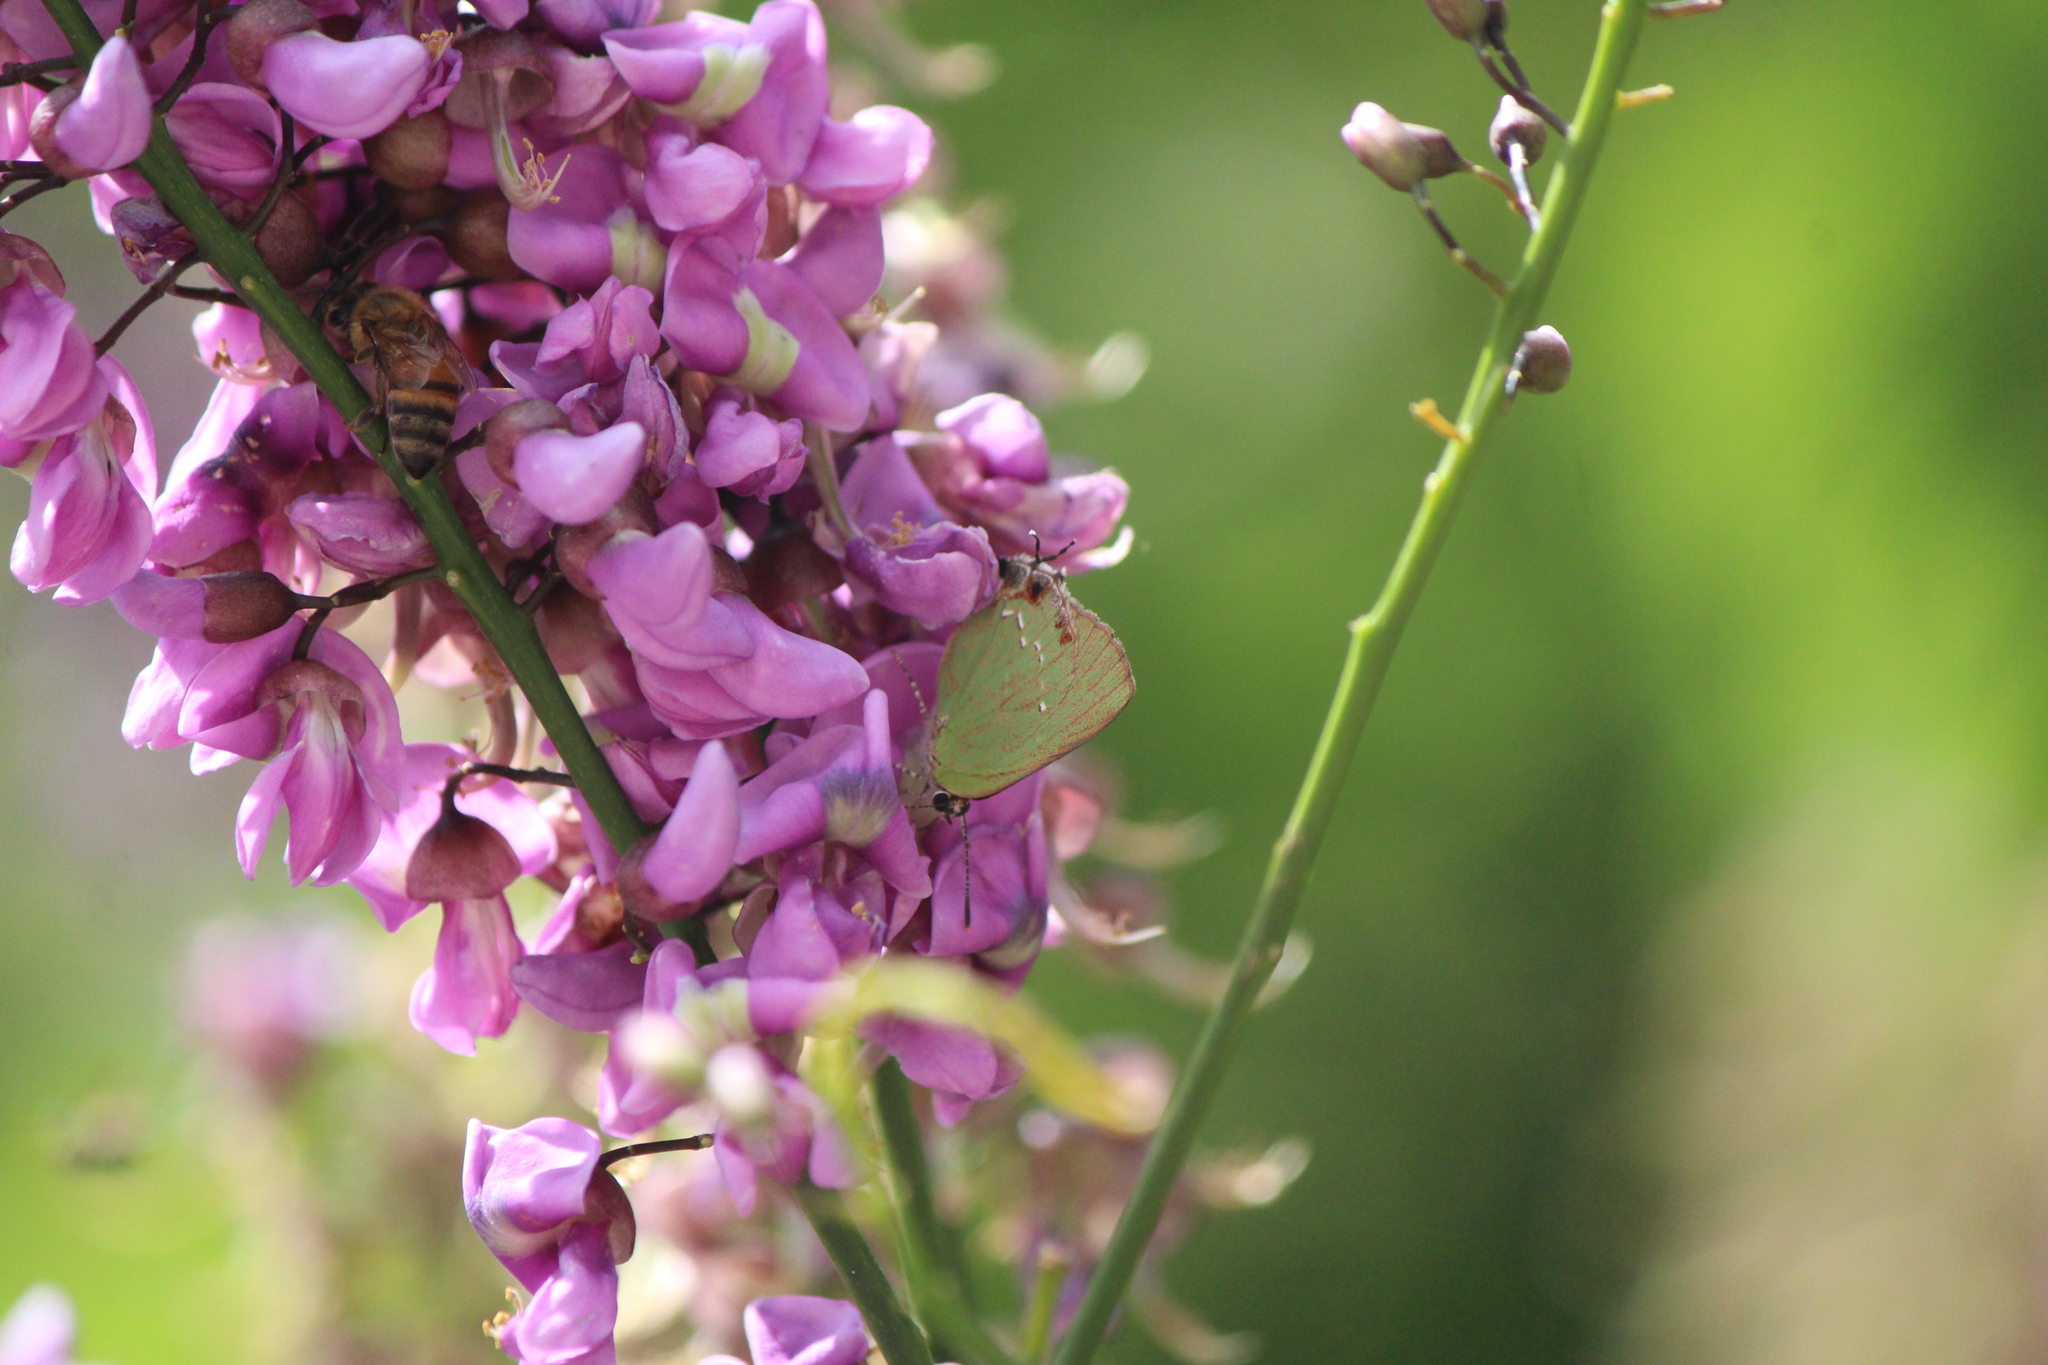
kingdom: Animalia
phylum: Arthropoda
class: Insecta
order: Lepidoptera
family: Lycaenidae
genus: Cyanophrys
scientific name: Cyanophrys miserabilis
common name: Clench's greenstreak
